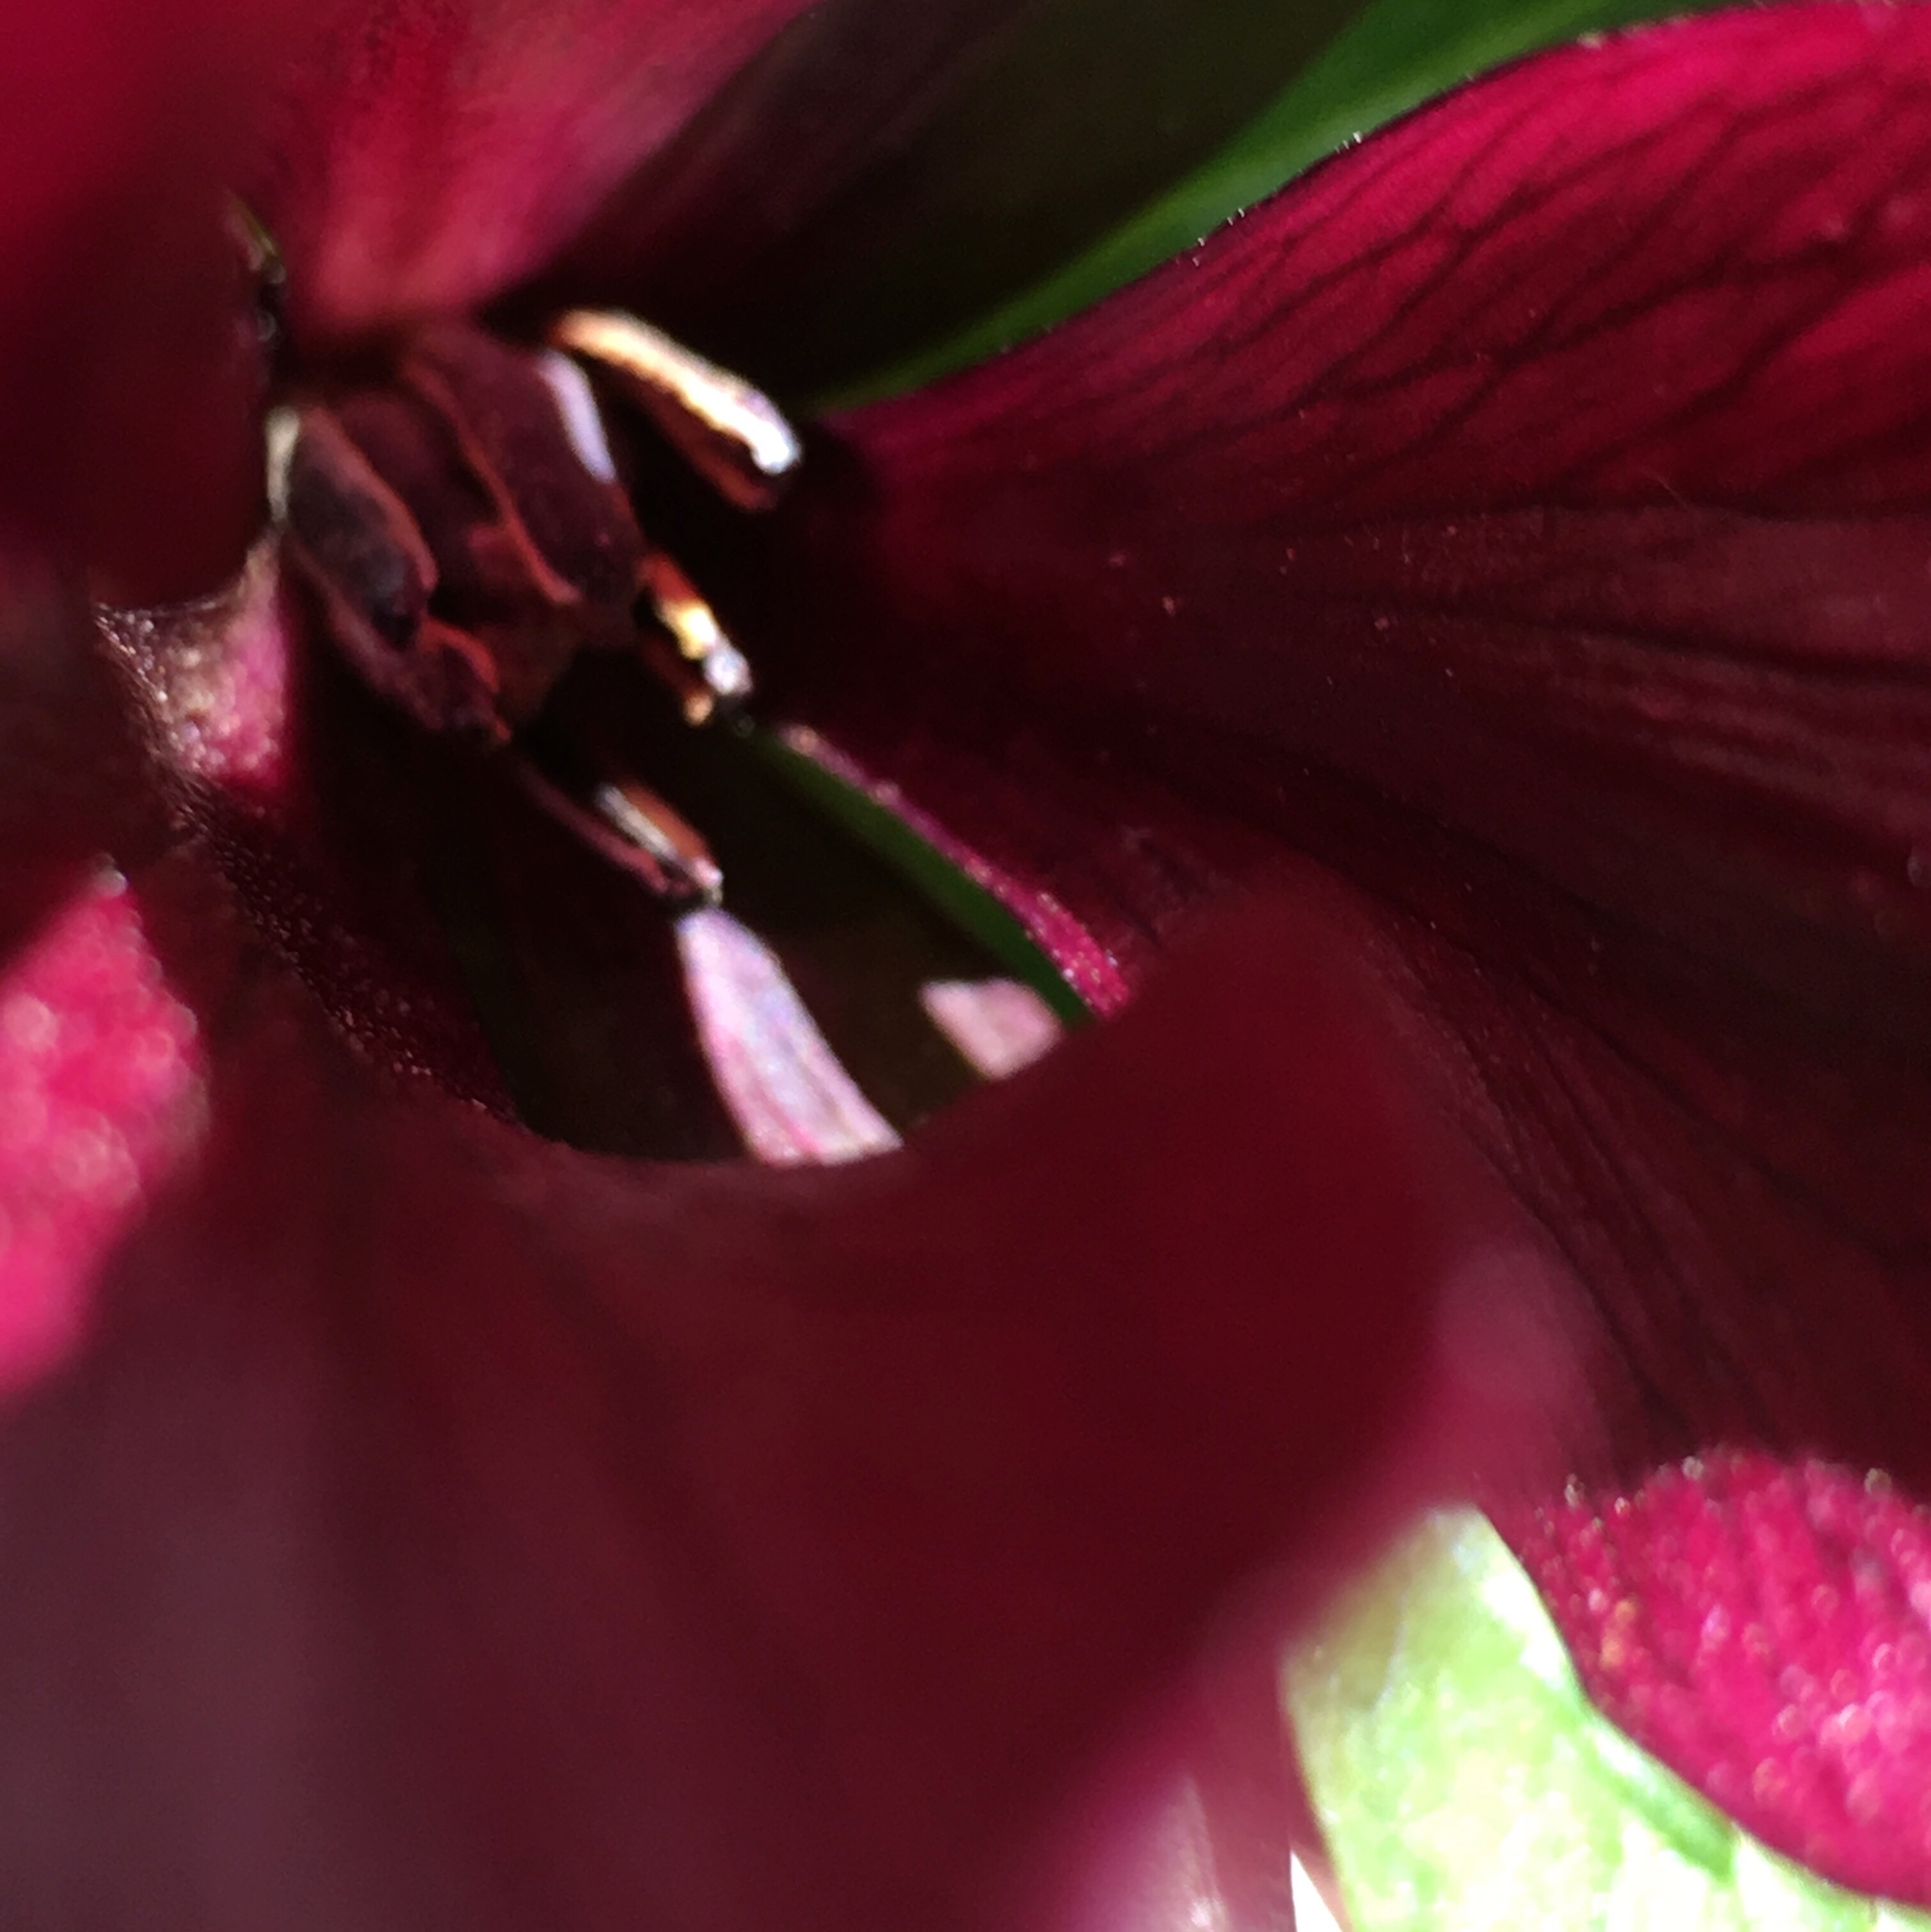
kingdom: Plantae
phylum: Tracheophyta
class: Liliopsida
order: Liliales
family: Melanthiaceae
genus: Trillium
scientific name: Trillium chloropetalum
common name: Giant trillium
